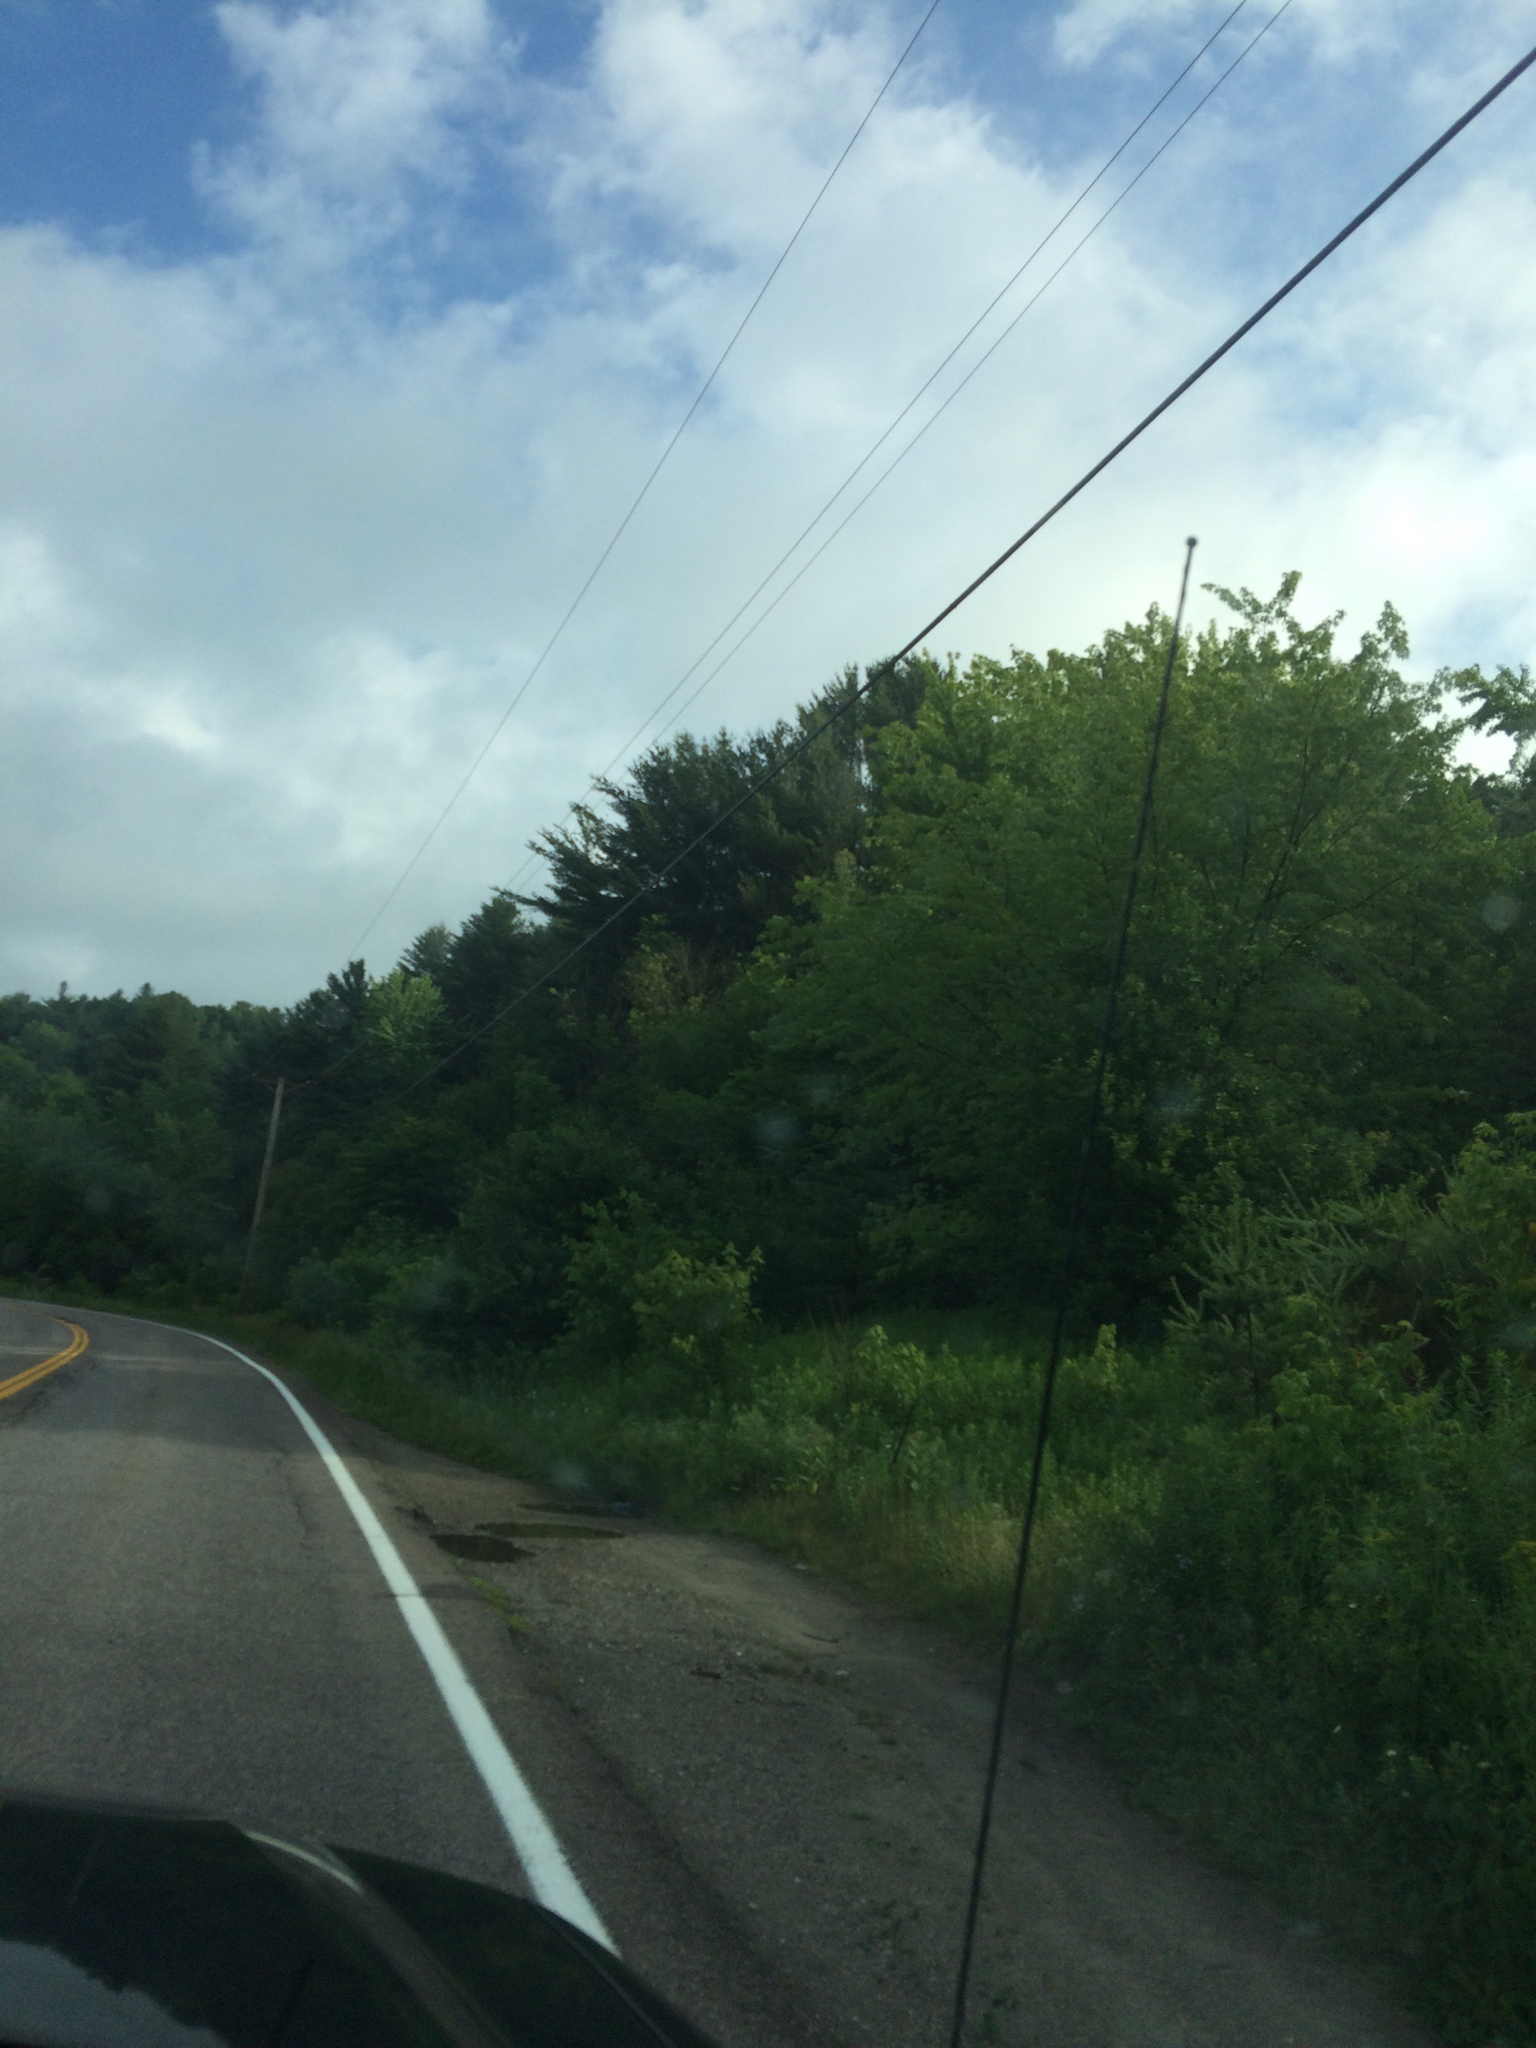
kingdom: Plantae
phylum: Tracheophyta
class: Pinopsida
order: Pinales
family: Pinaceae
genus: Pinus
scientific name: Pinus strobus
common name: Weymouth pine
